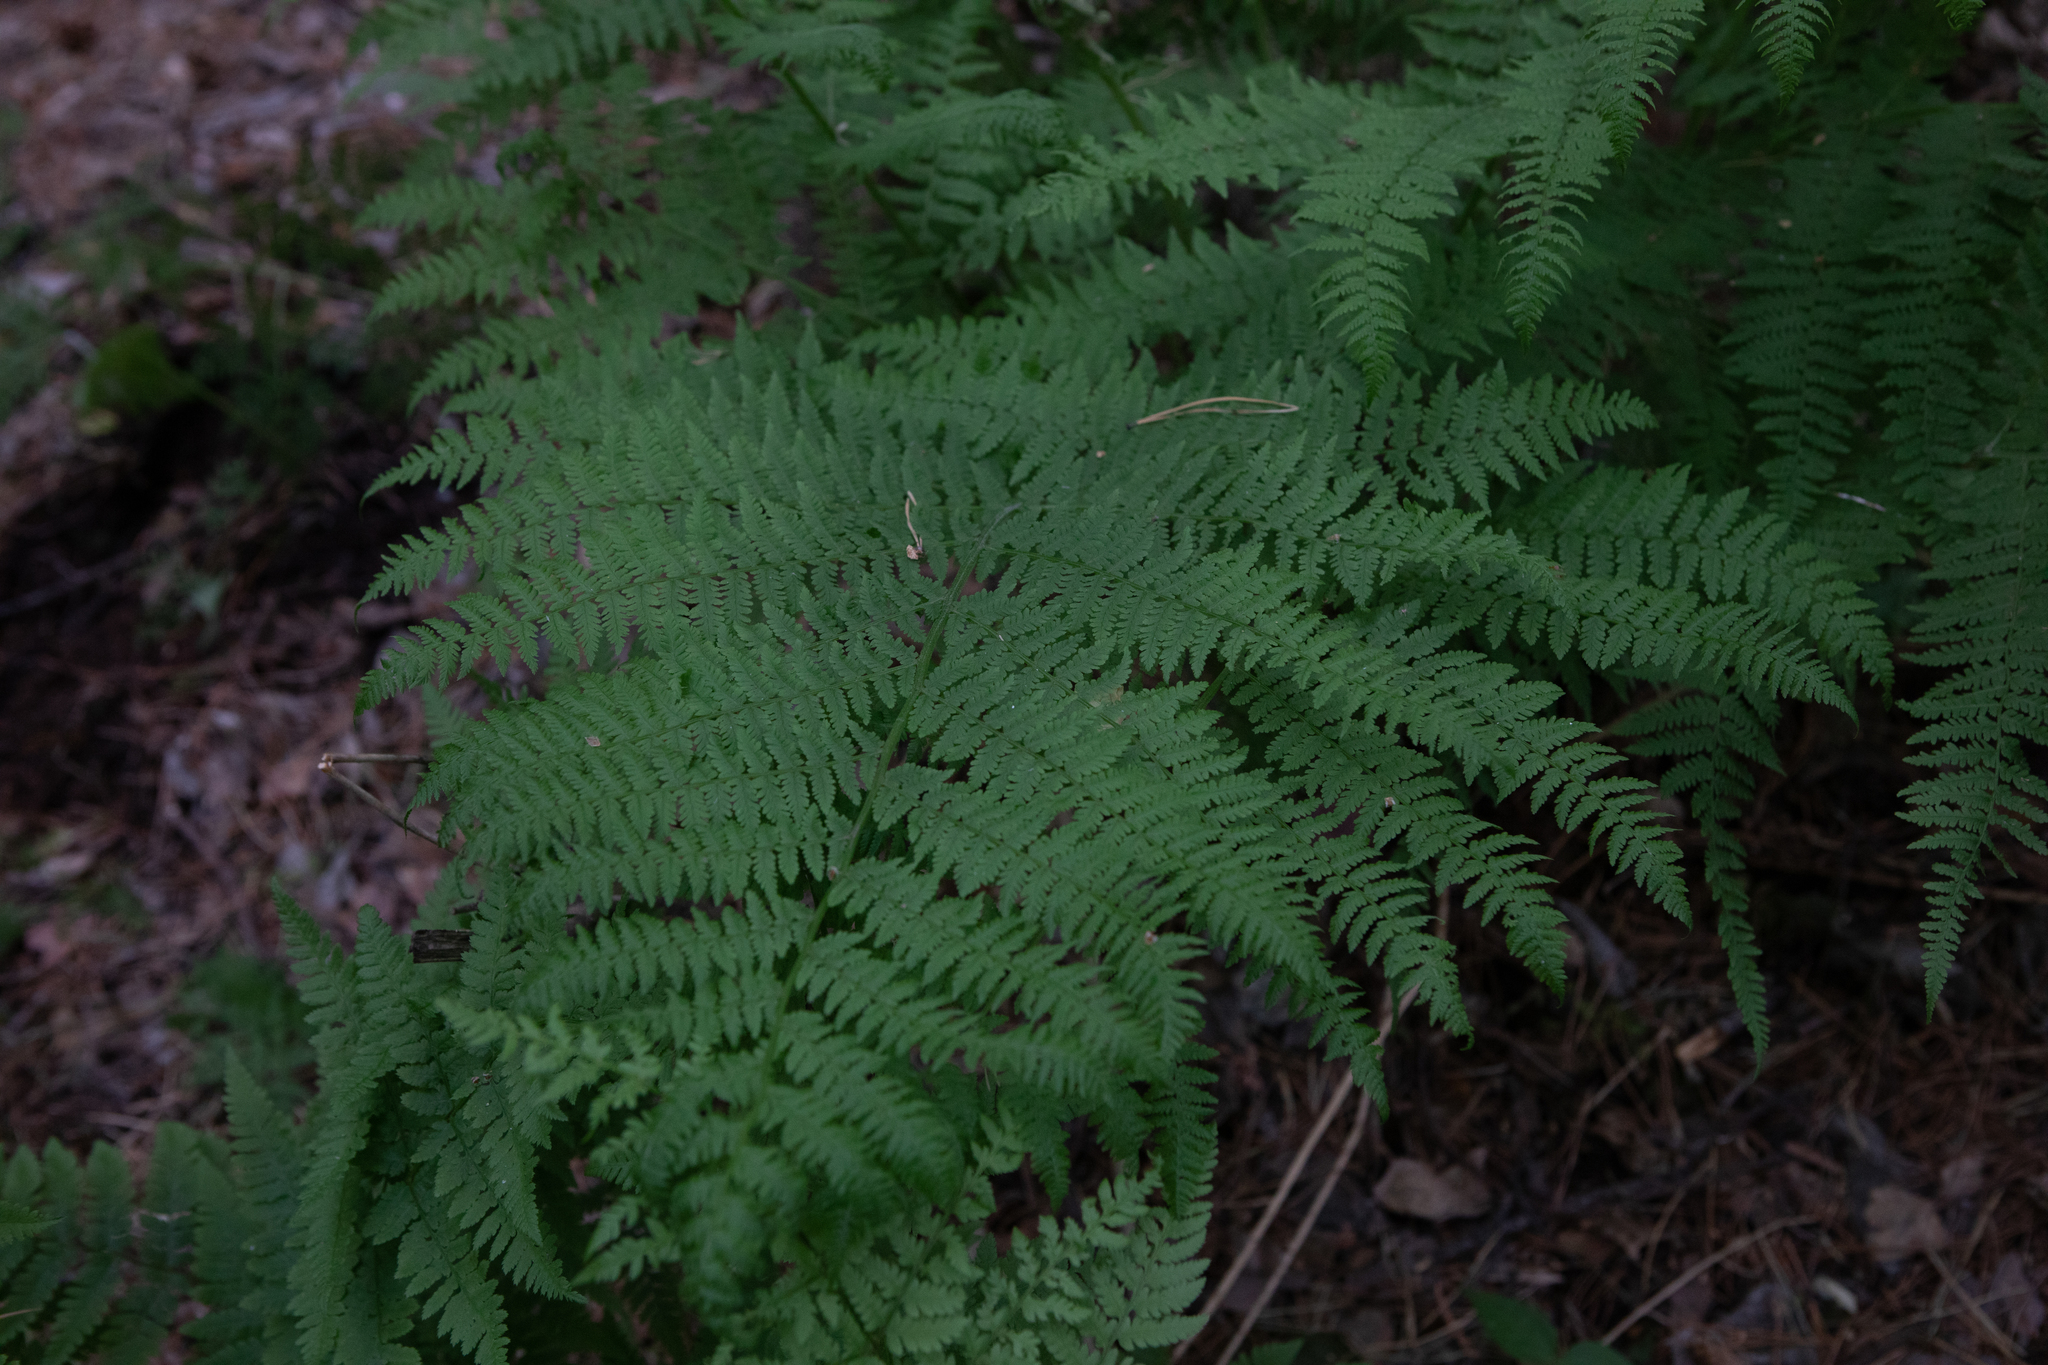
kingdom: Plantae
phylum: Tracheophyta
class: Polypodiopsida
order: Polypodiales
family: Athyriaceae
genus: Athyrium
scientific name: Athyrium filix-femina
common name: Lady fern
